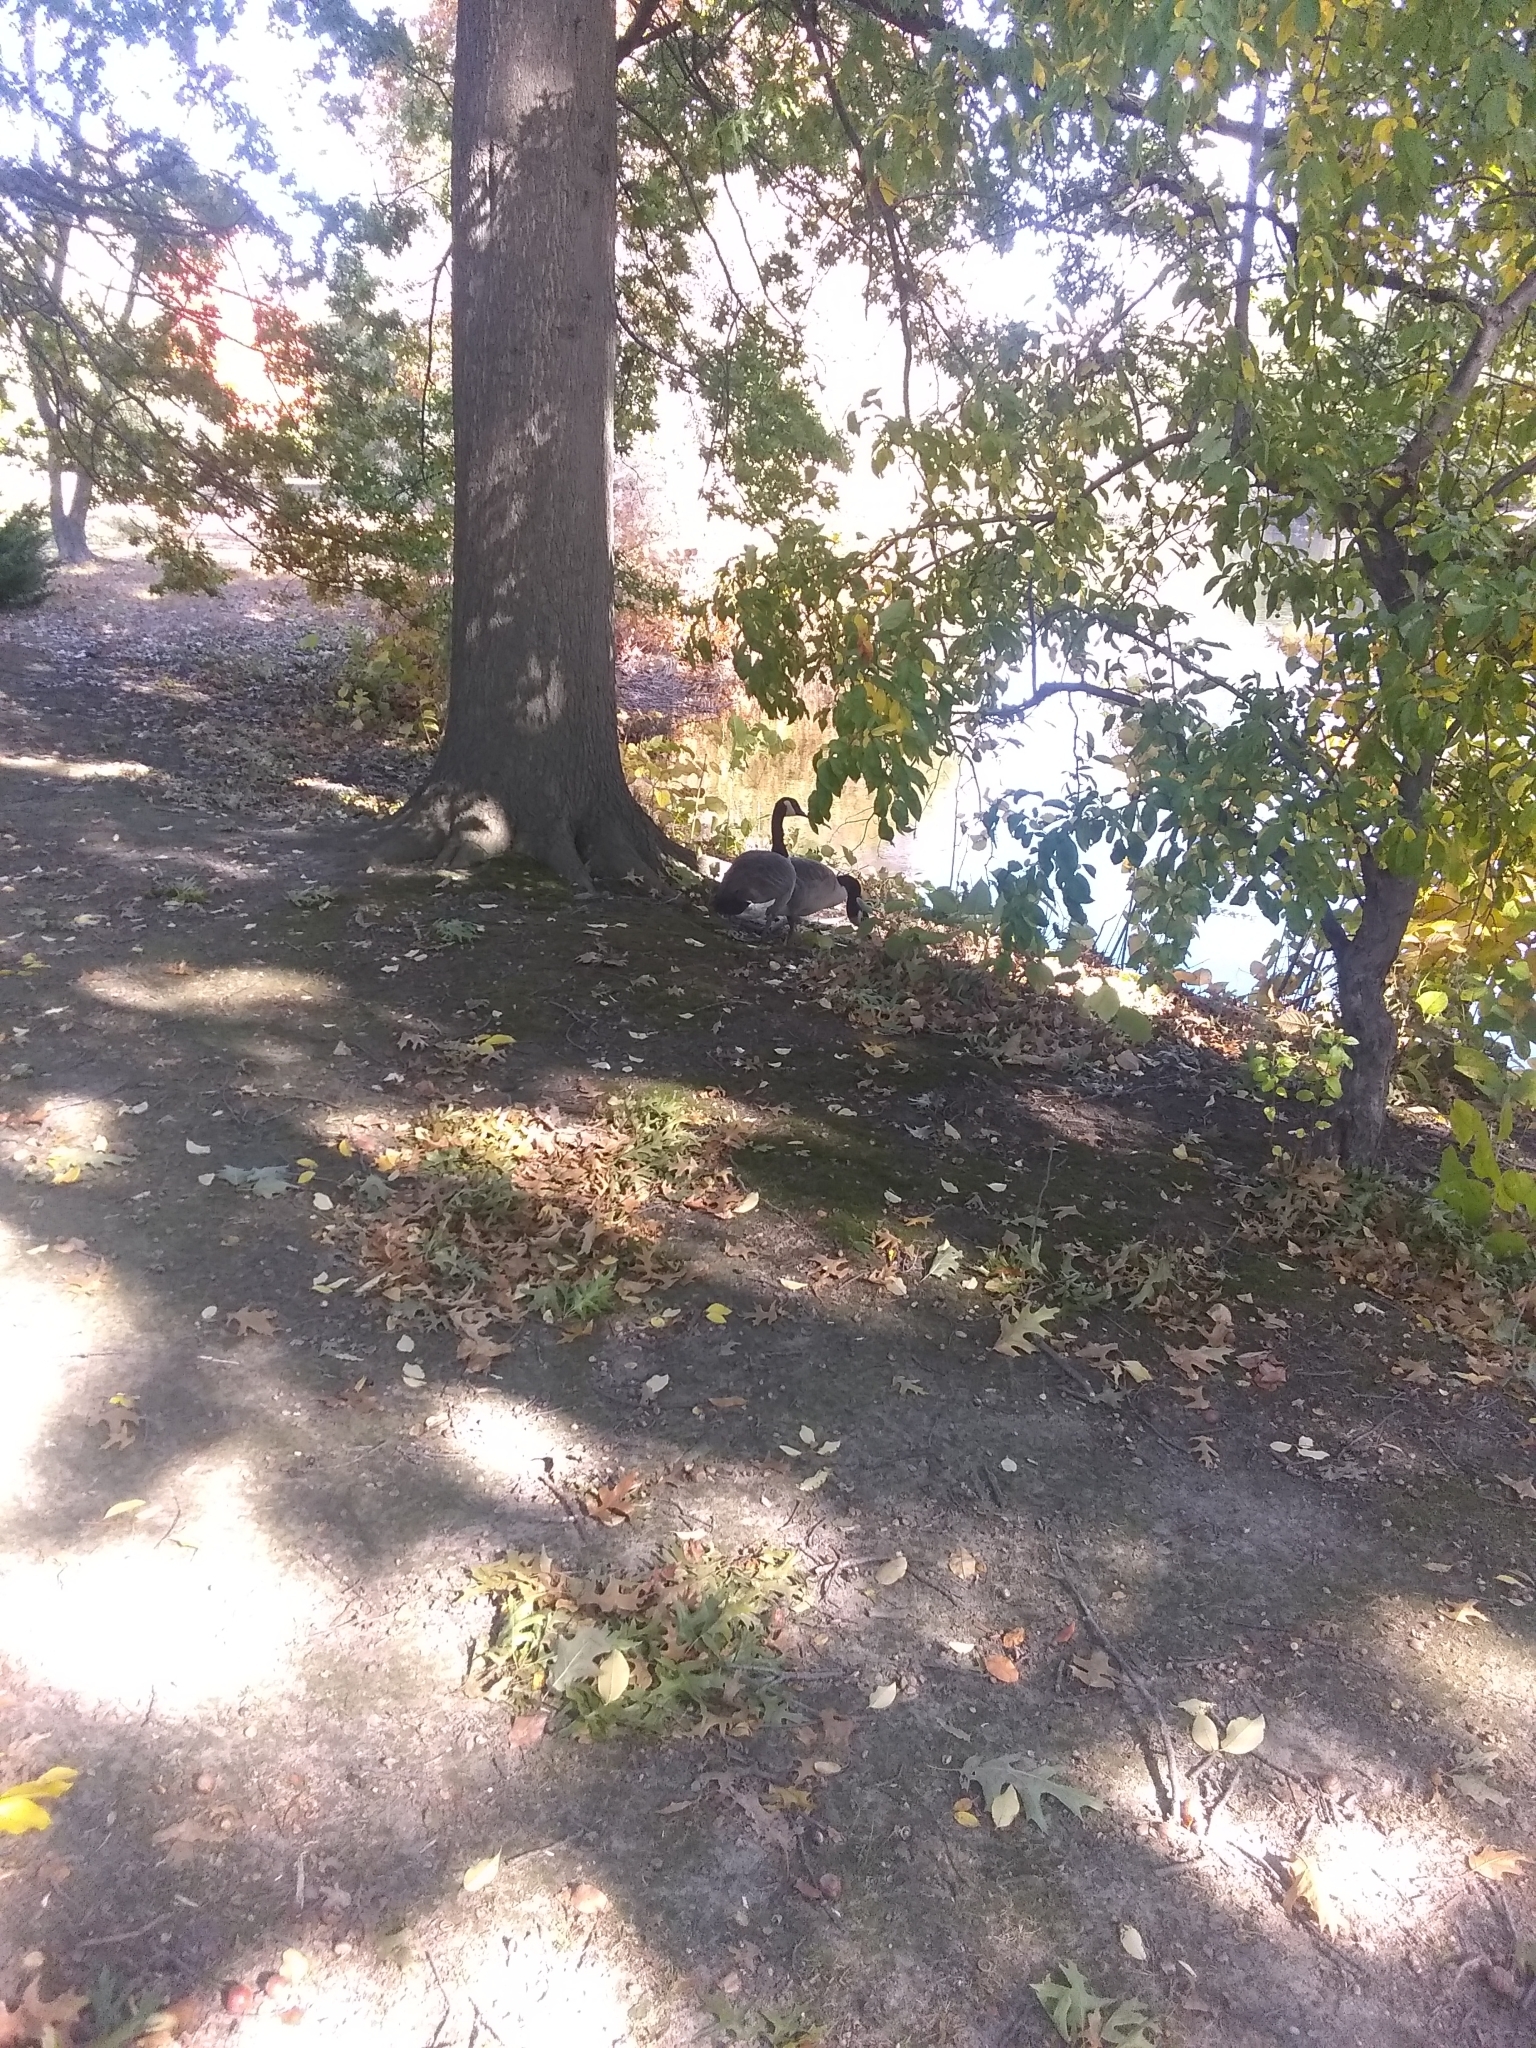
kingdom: Animalia
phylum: Chordata
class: Aves
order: Anseriformes
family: Anatidae
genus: Branta
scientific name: Branta canadensis
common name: Canada goose
